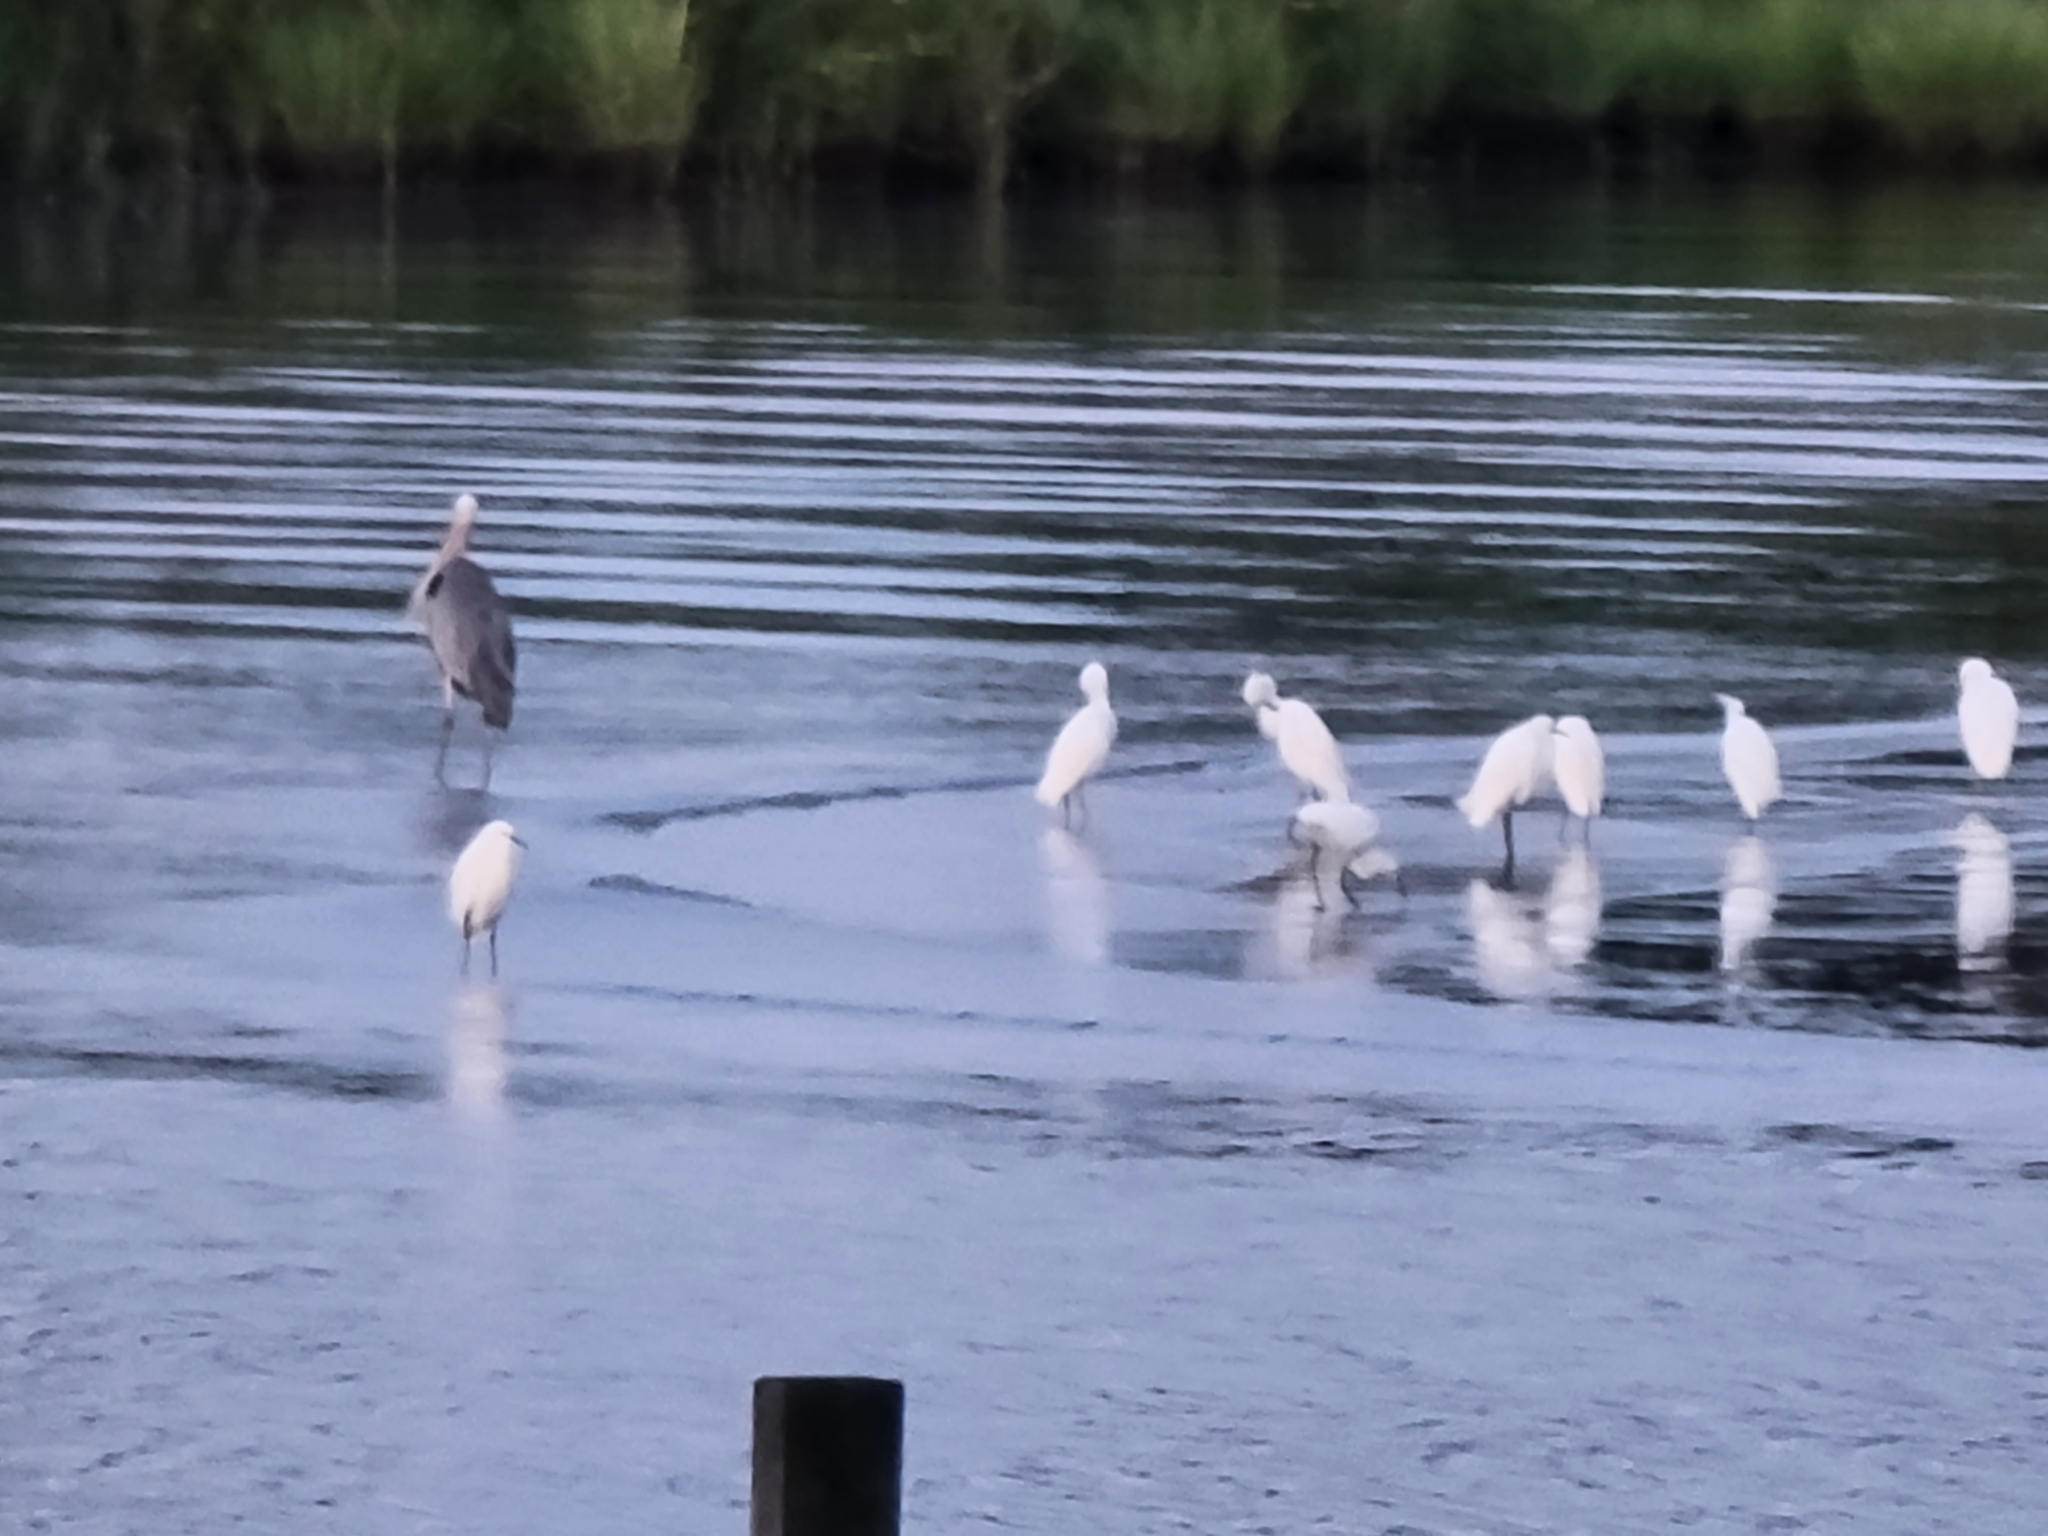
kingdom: Animalia
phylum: Chordata
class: Aves
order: Pelecaniformes
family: Ardeidae
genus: Egretta
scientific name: Egretta thula
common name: Snowy egret
